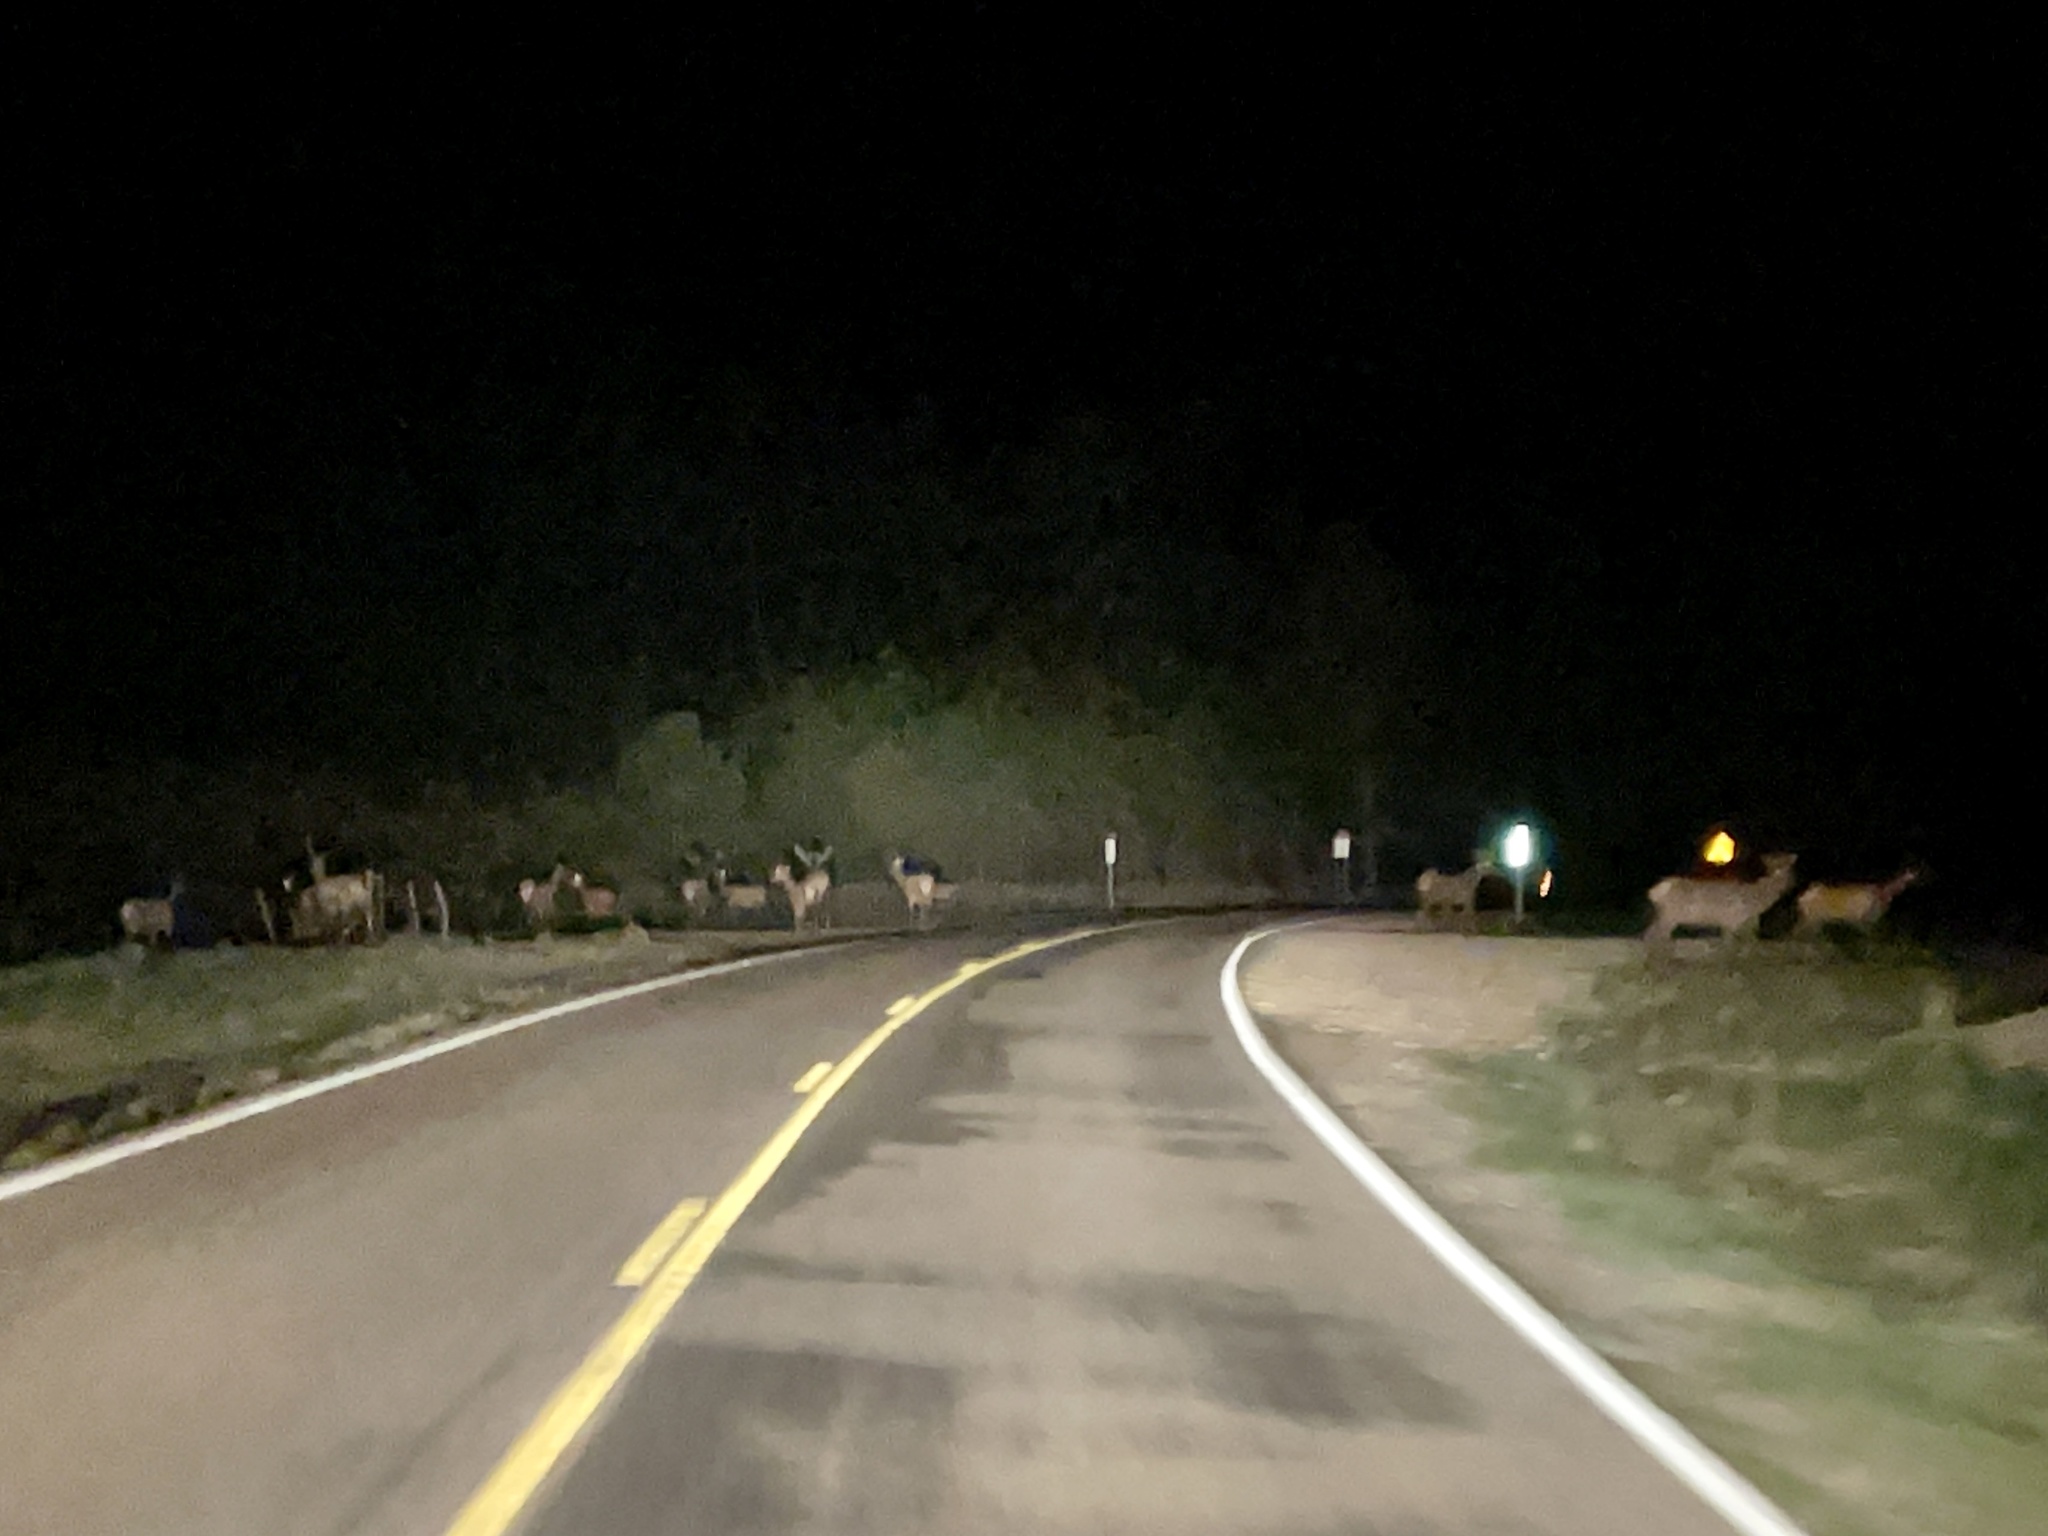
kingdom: Animalia
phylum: Chordata
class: Mammalia
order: Artiodactyla
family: Cervidae
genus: Cervus
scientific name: Cervus elaphus
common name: Red deer
